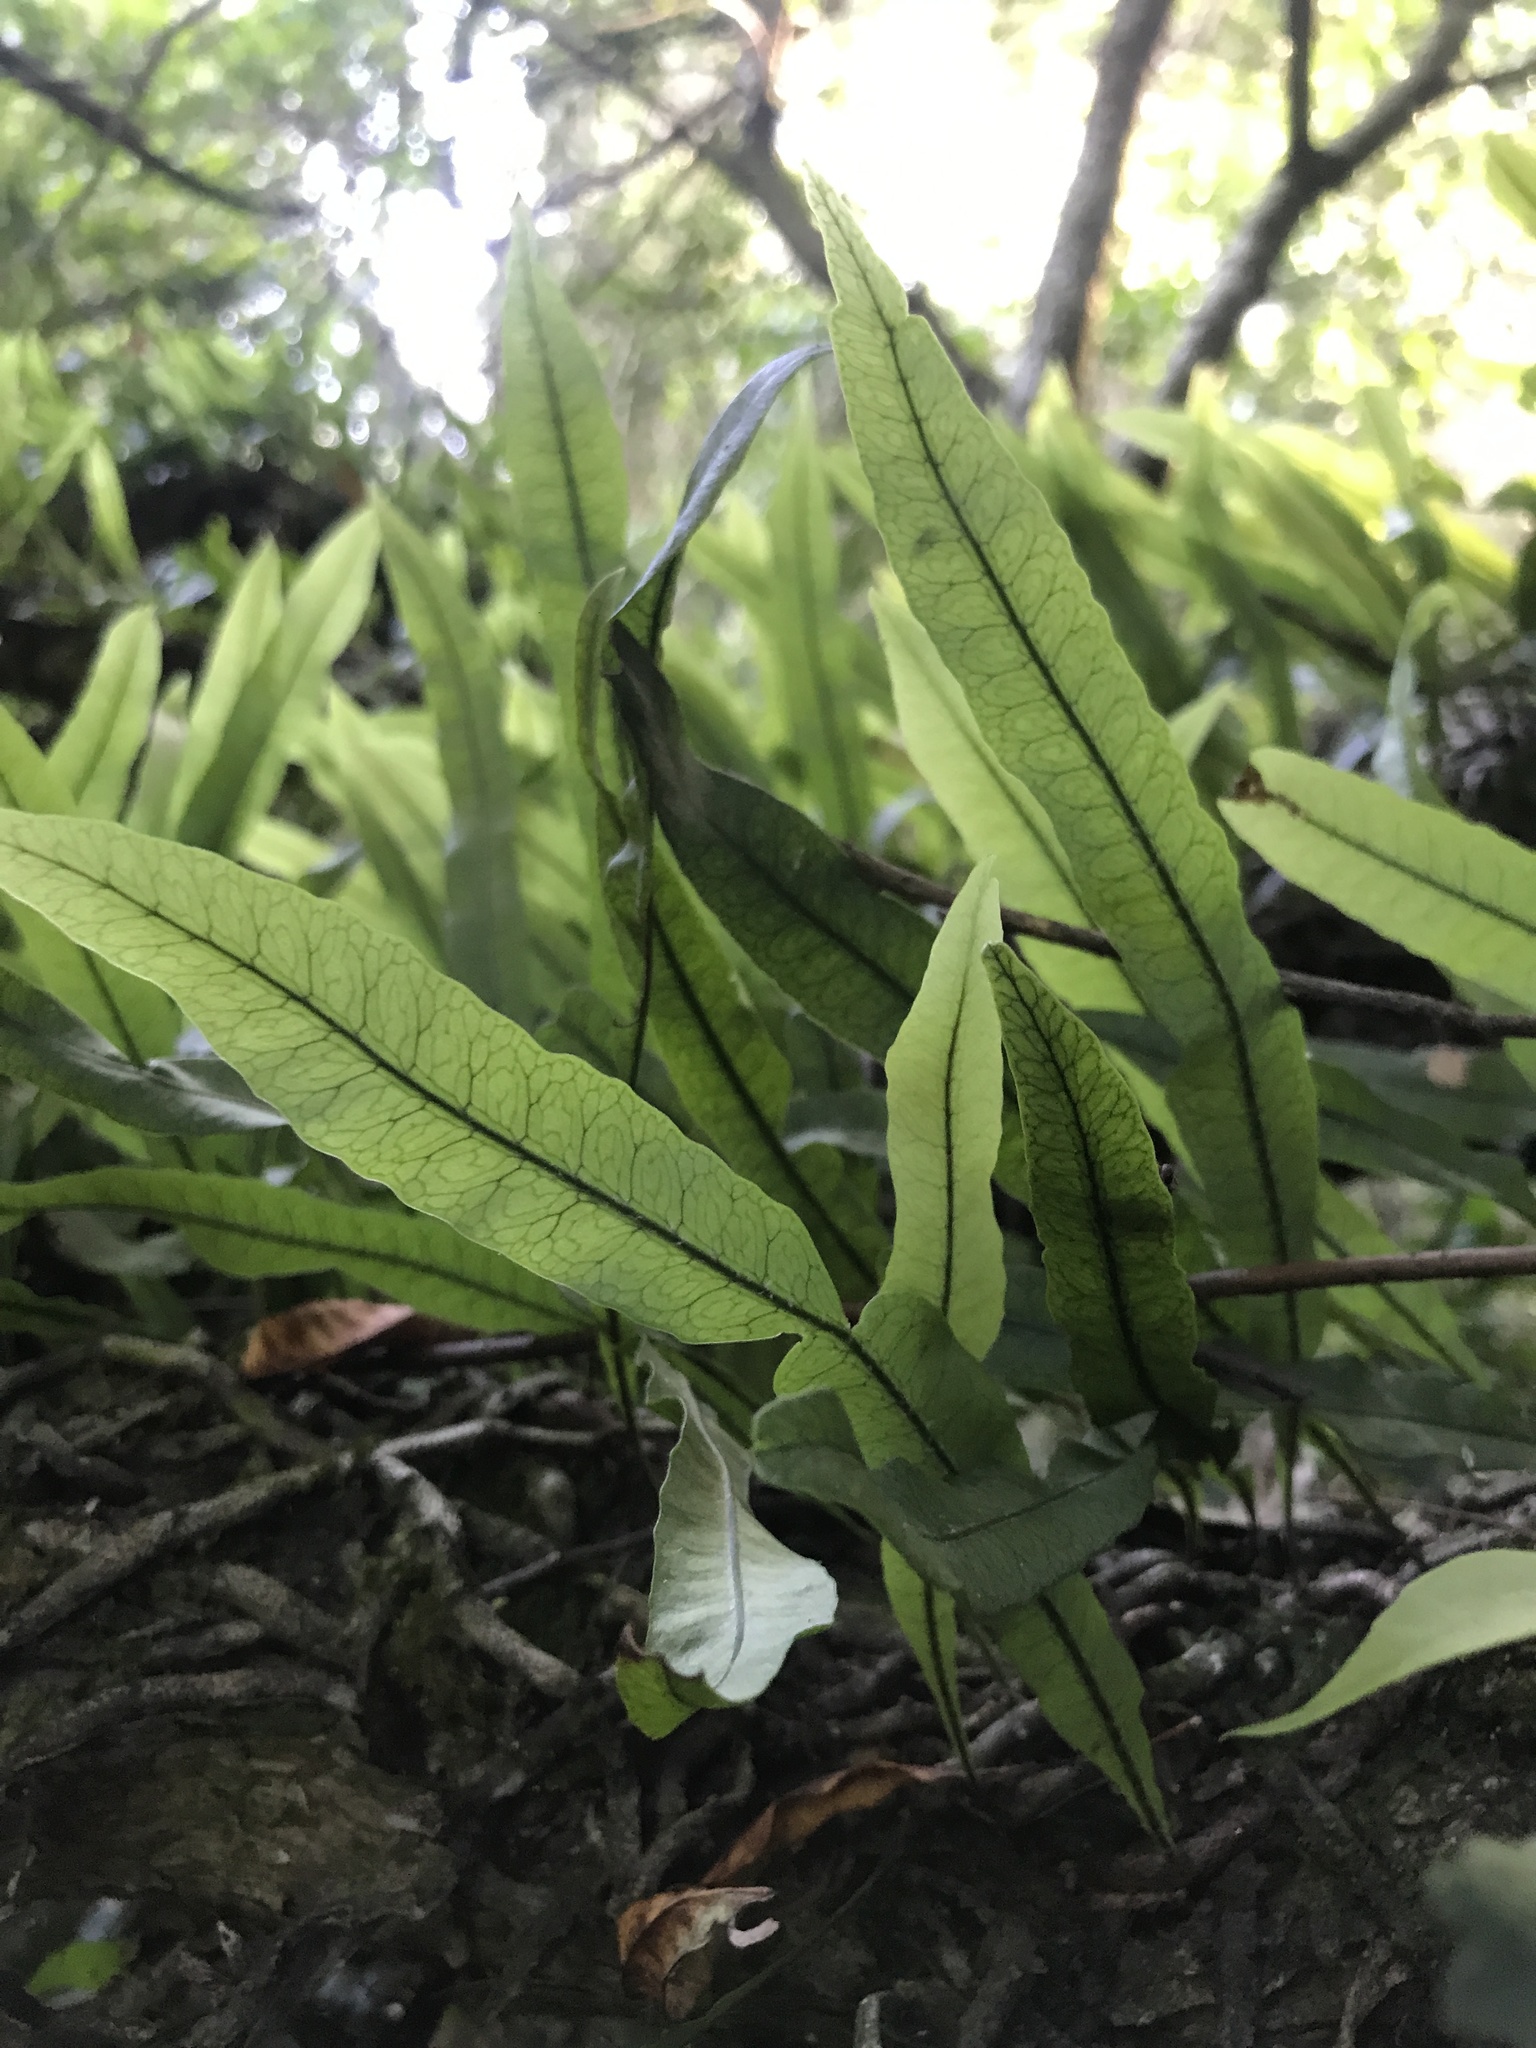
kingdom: Plantae
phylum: Tracheophyta
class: Polypodiopsida
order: Polypodiales
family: Polypodiaceae
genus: Microgramma
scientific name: Microgramma squamulosa
